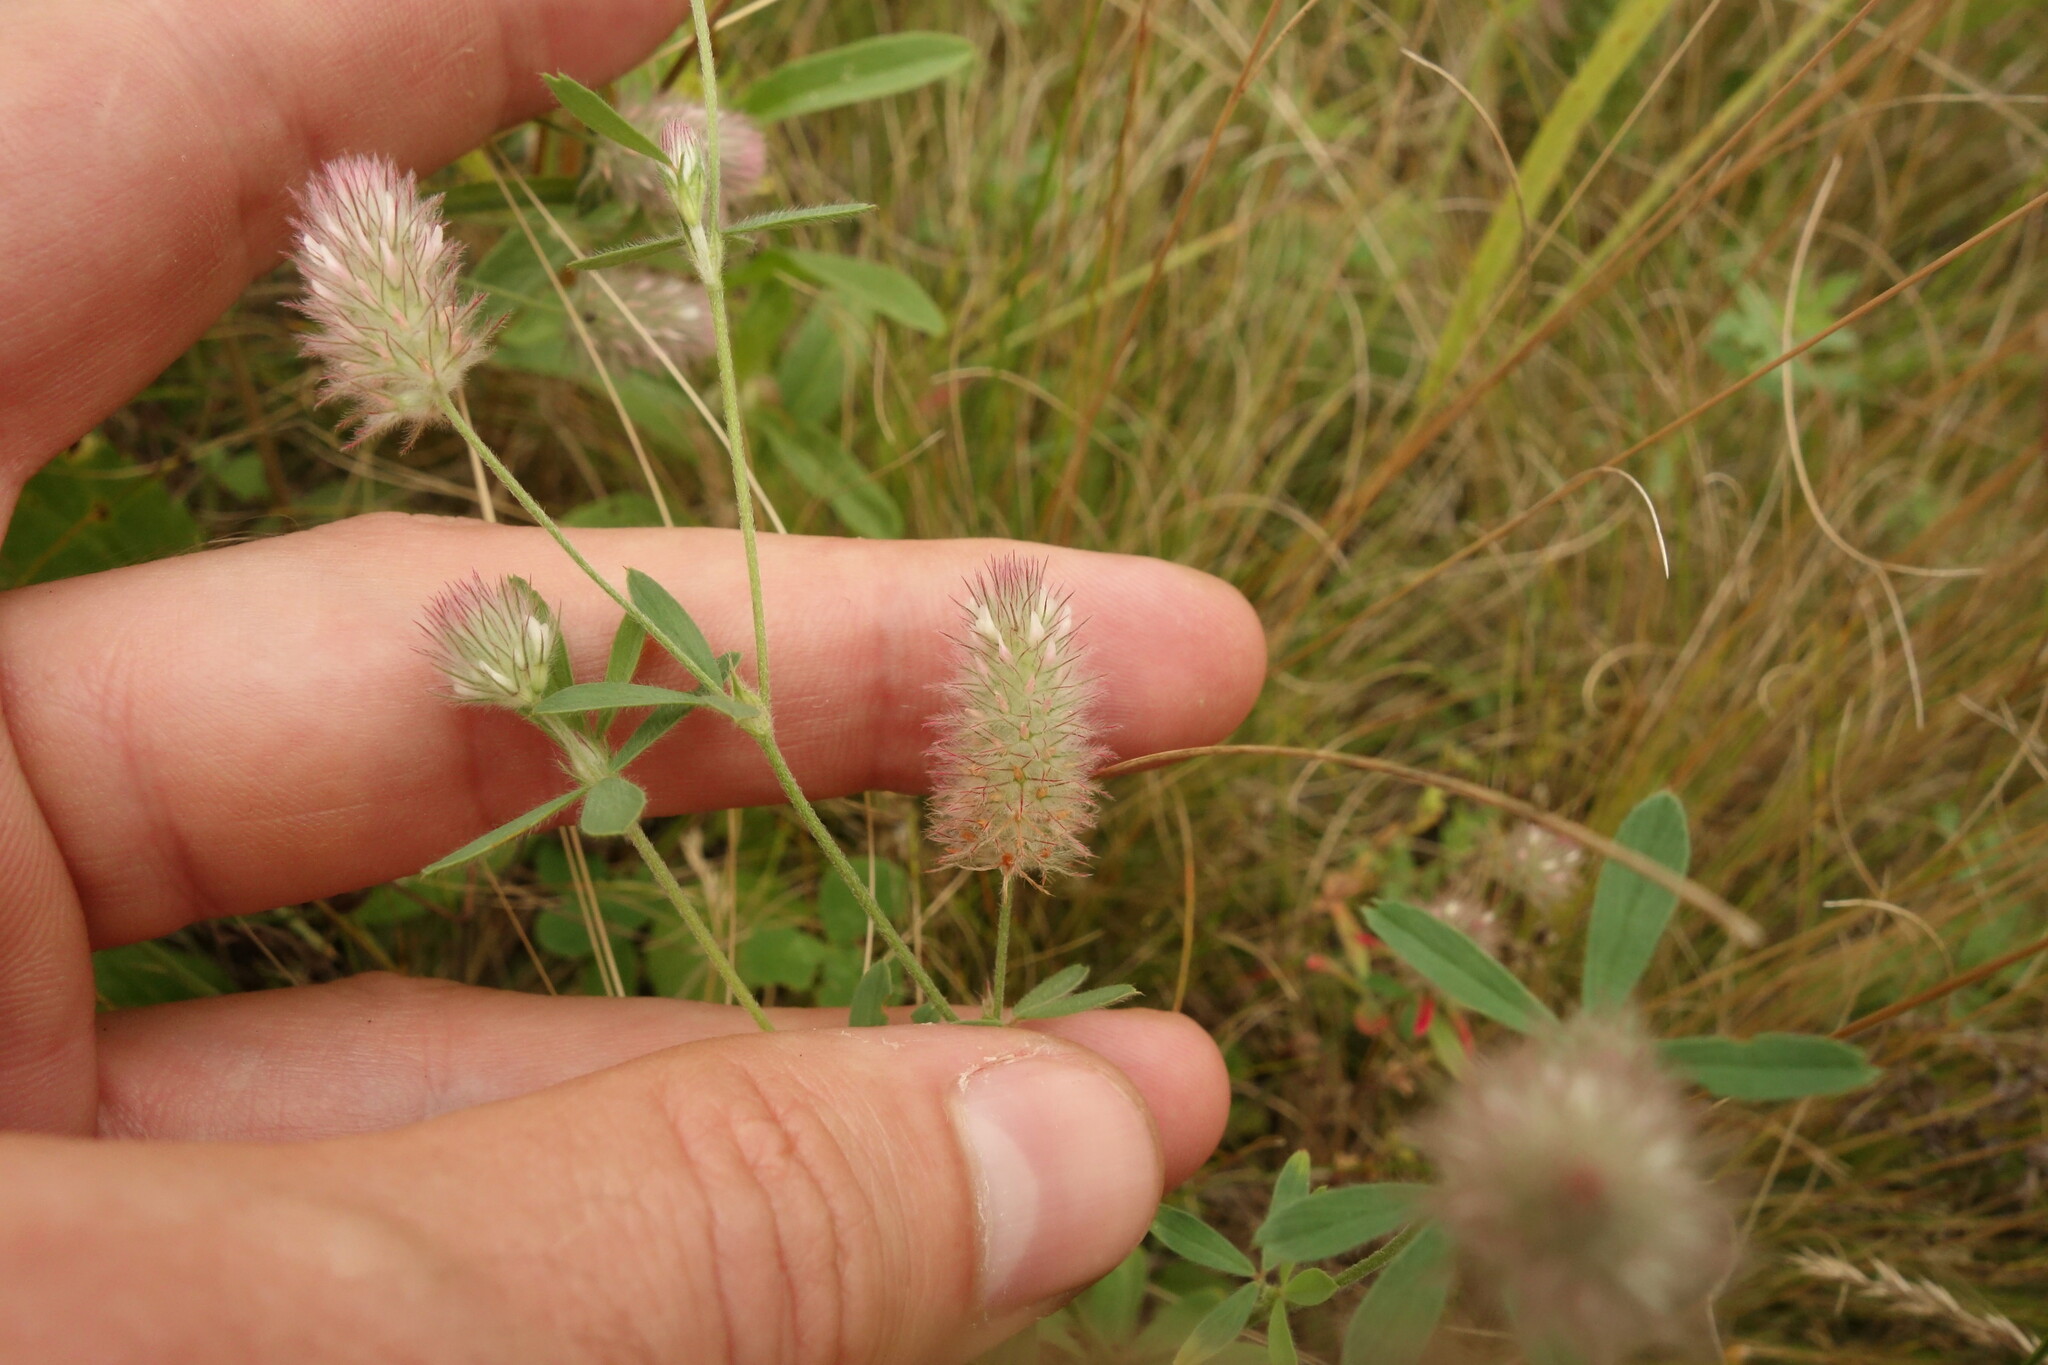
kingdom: Plantae
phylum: Tracheophyta
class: Magnoliopsida
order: Fabales
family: Fabaceae
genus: Trifolium
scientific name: Trifolium arvense
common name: Hare's-foot clover
